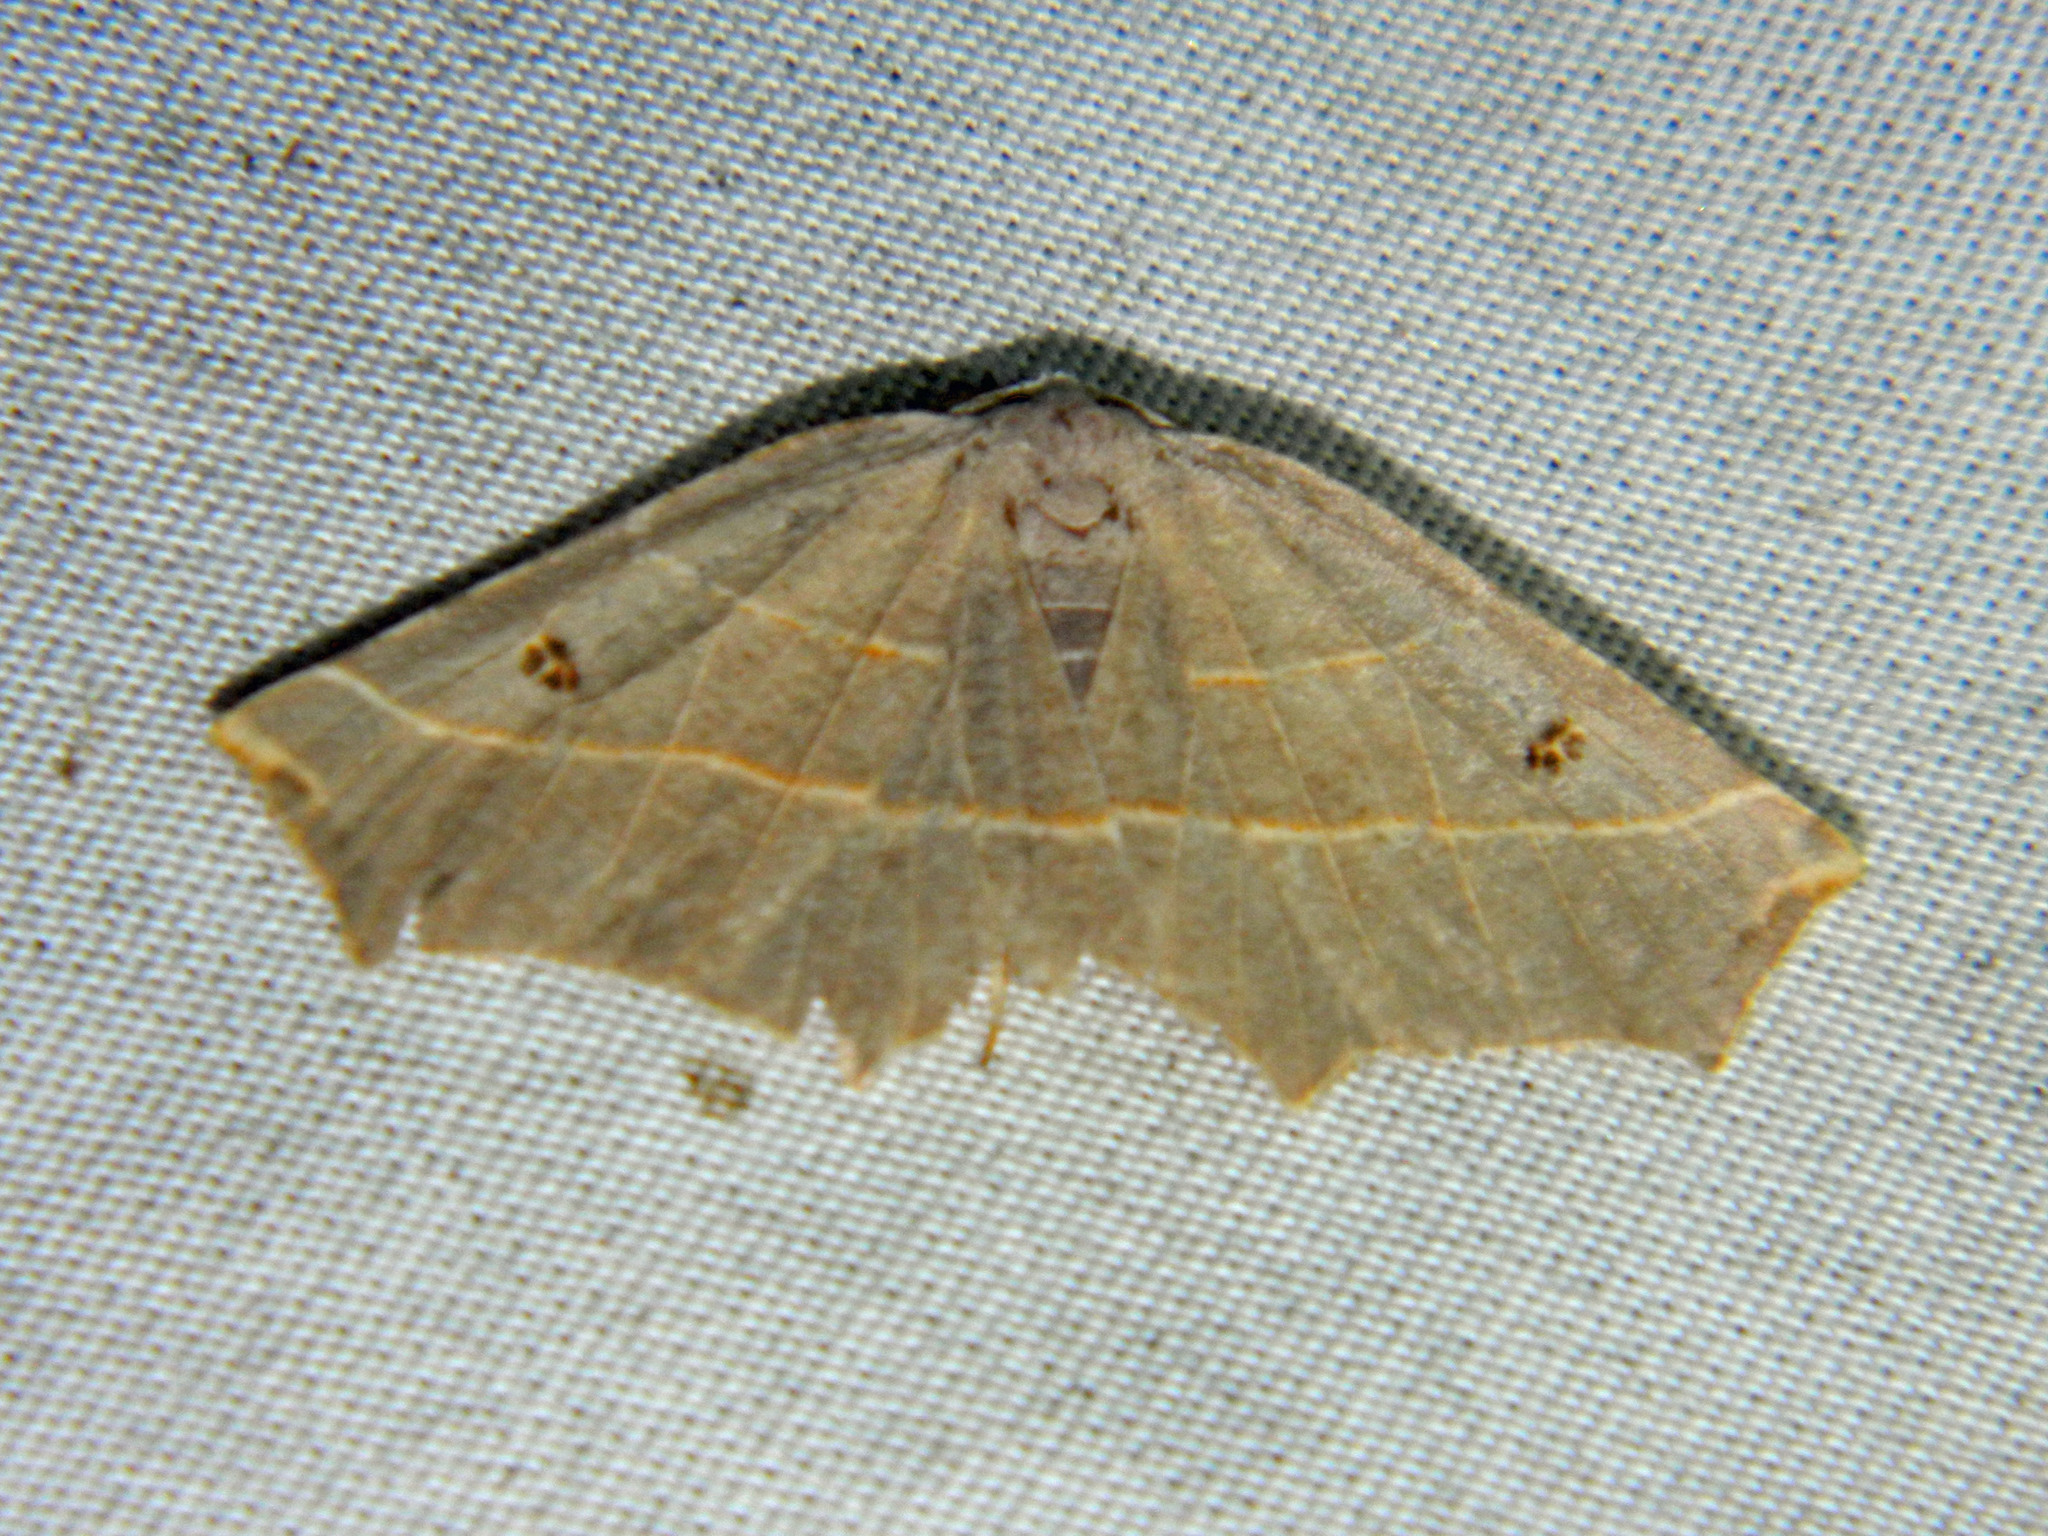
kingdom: Animalia
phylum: Arthropoda
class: Insecta
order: Lepidoptera
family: Geometridae
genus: Metanema
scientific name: Metanema inatomaria
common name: Pale metanema
